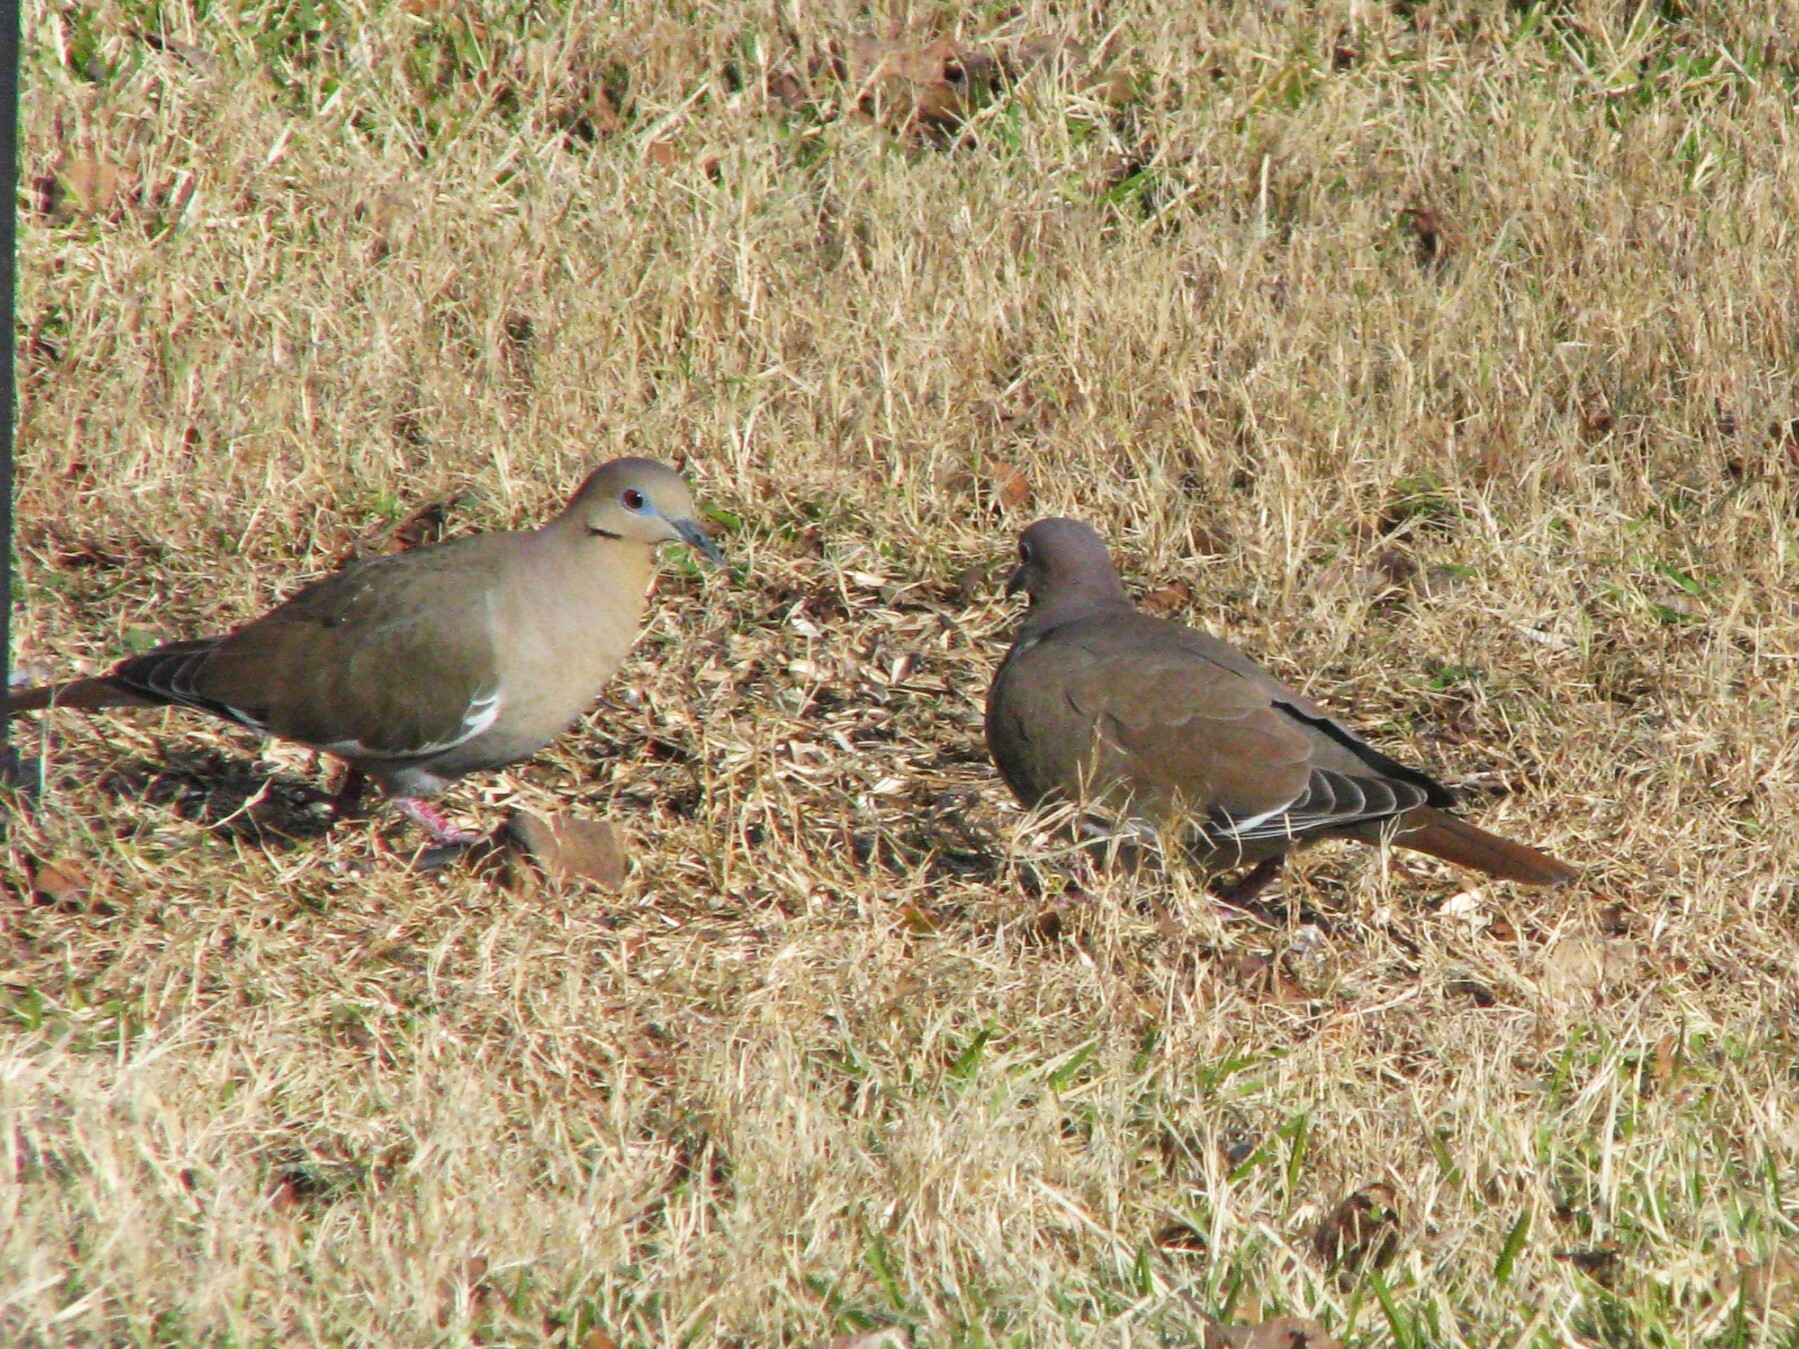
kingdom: Animalia
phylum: Chordata
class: Aves
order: Columbiformes
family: Columbidae
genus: Zenaida
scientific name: Zenaida asiatica
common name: White-winged dove
